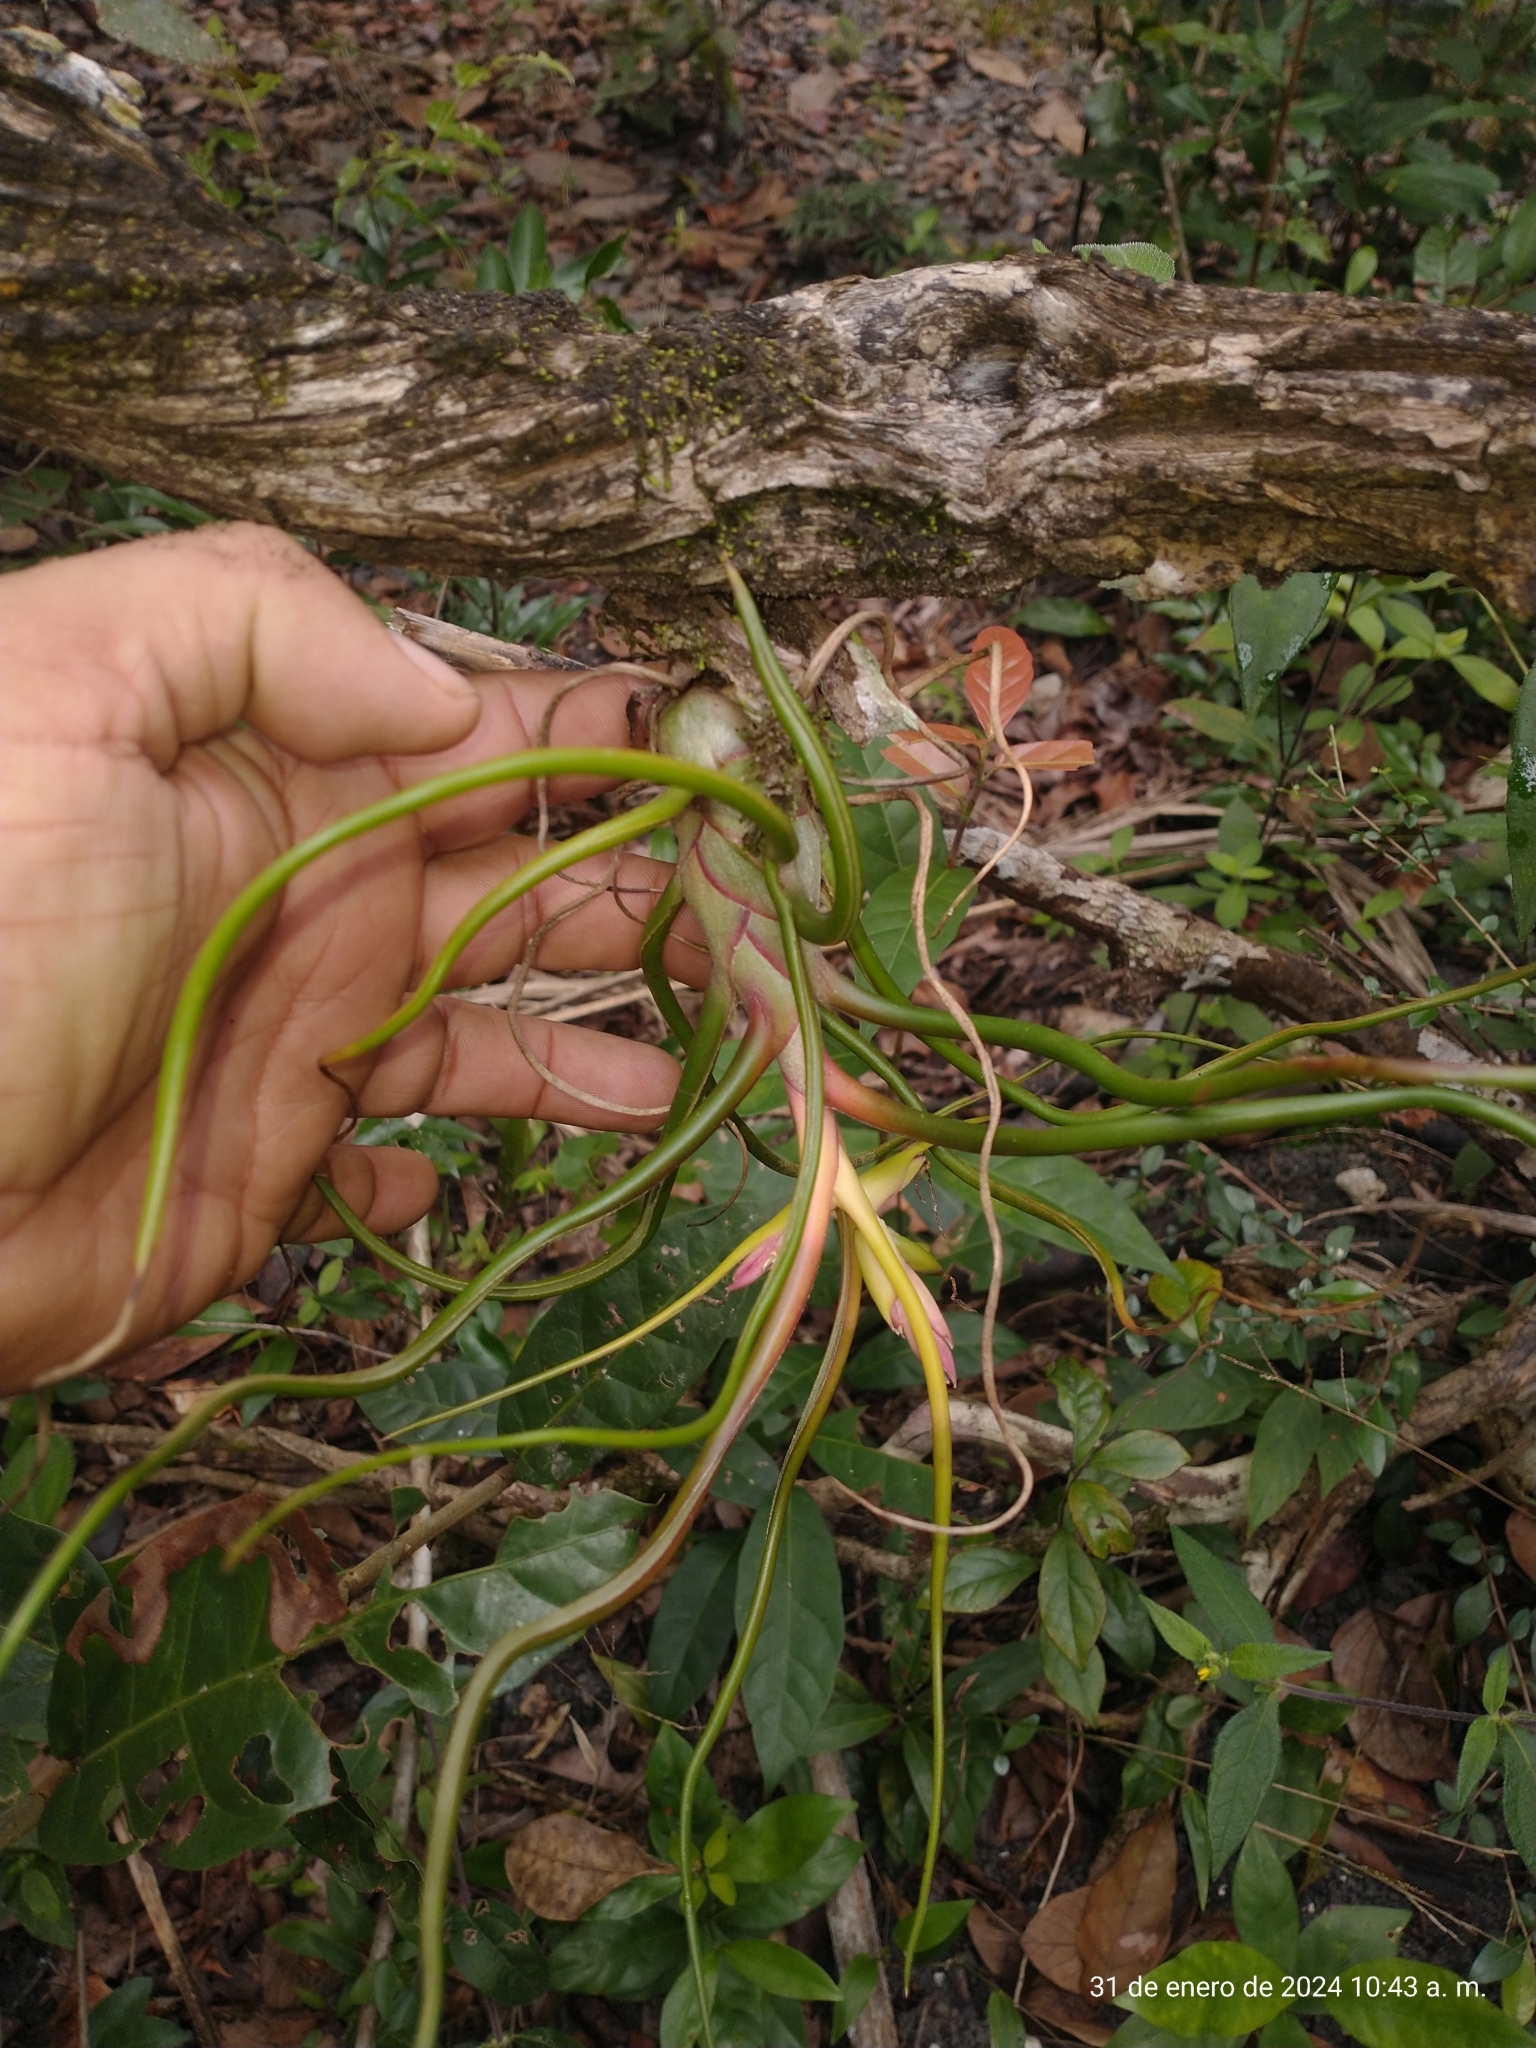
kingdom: Plantae
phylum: Tracheophyta
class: Liliopsida
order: Poales
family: Bromeliaceae
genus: Tillandsia
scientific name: Tillandsia bulbosa
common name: Bulbous airplant
